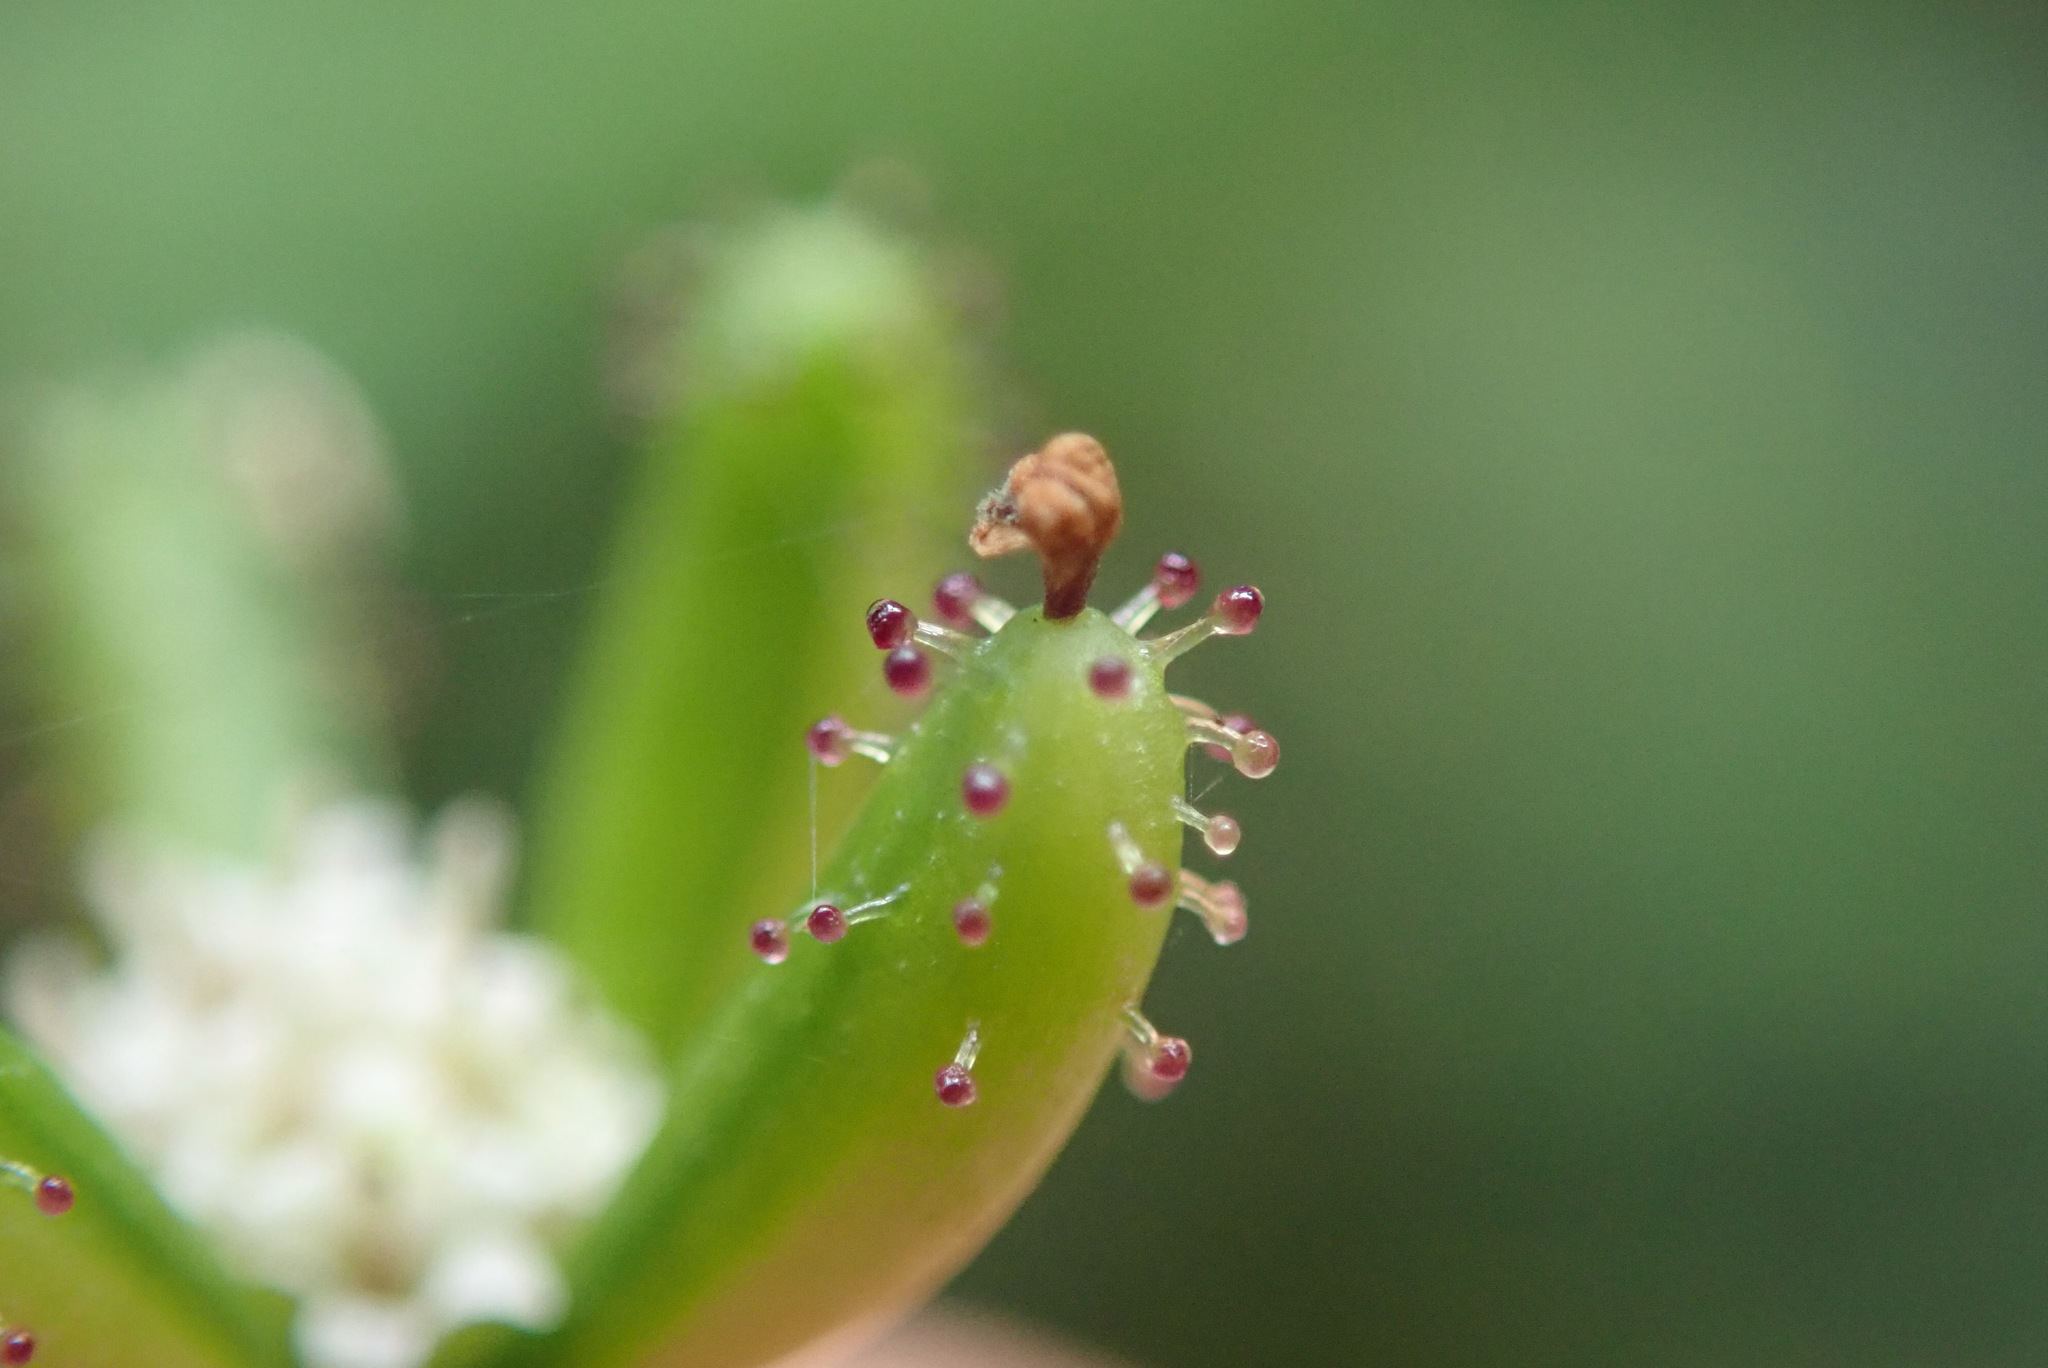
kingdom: Plantae
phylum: Tracheophyta
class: Magnoliopsida
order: Asterales
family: Asteraceae
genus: Adenocaulon
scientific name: Adenocaulon bicolor
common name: Trailplant
